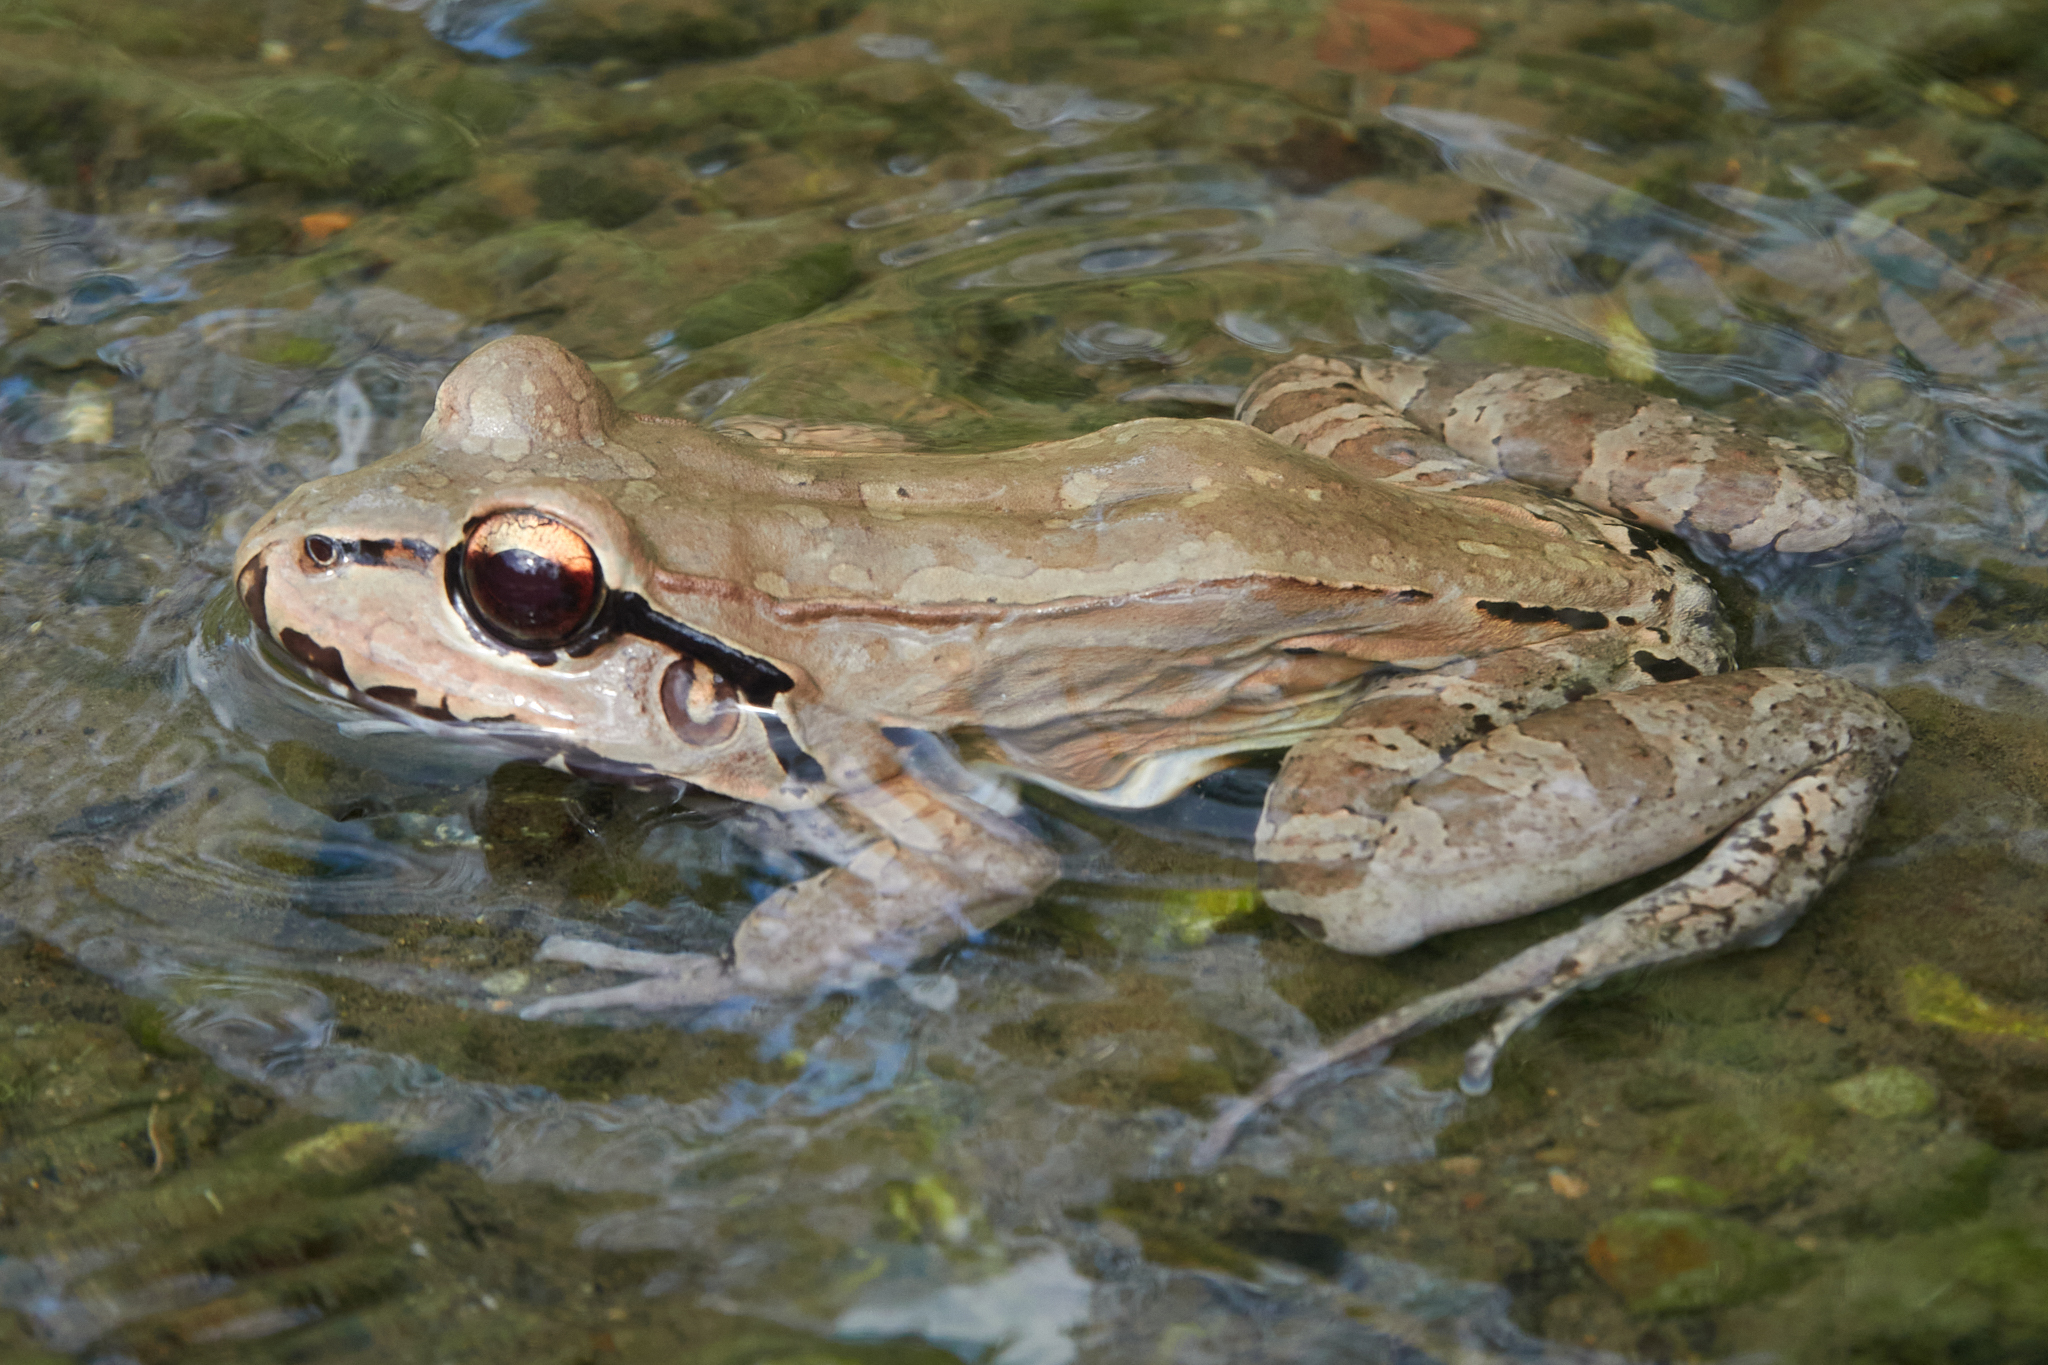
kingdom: Animalia
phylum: Chordata
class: Amphibia
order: Anura
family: Leptodactylidae
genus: Leptodactylus
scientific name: Leptodactylus insularum
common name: San miguel island frog
